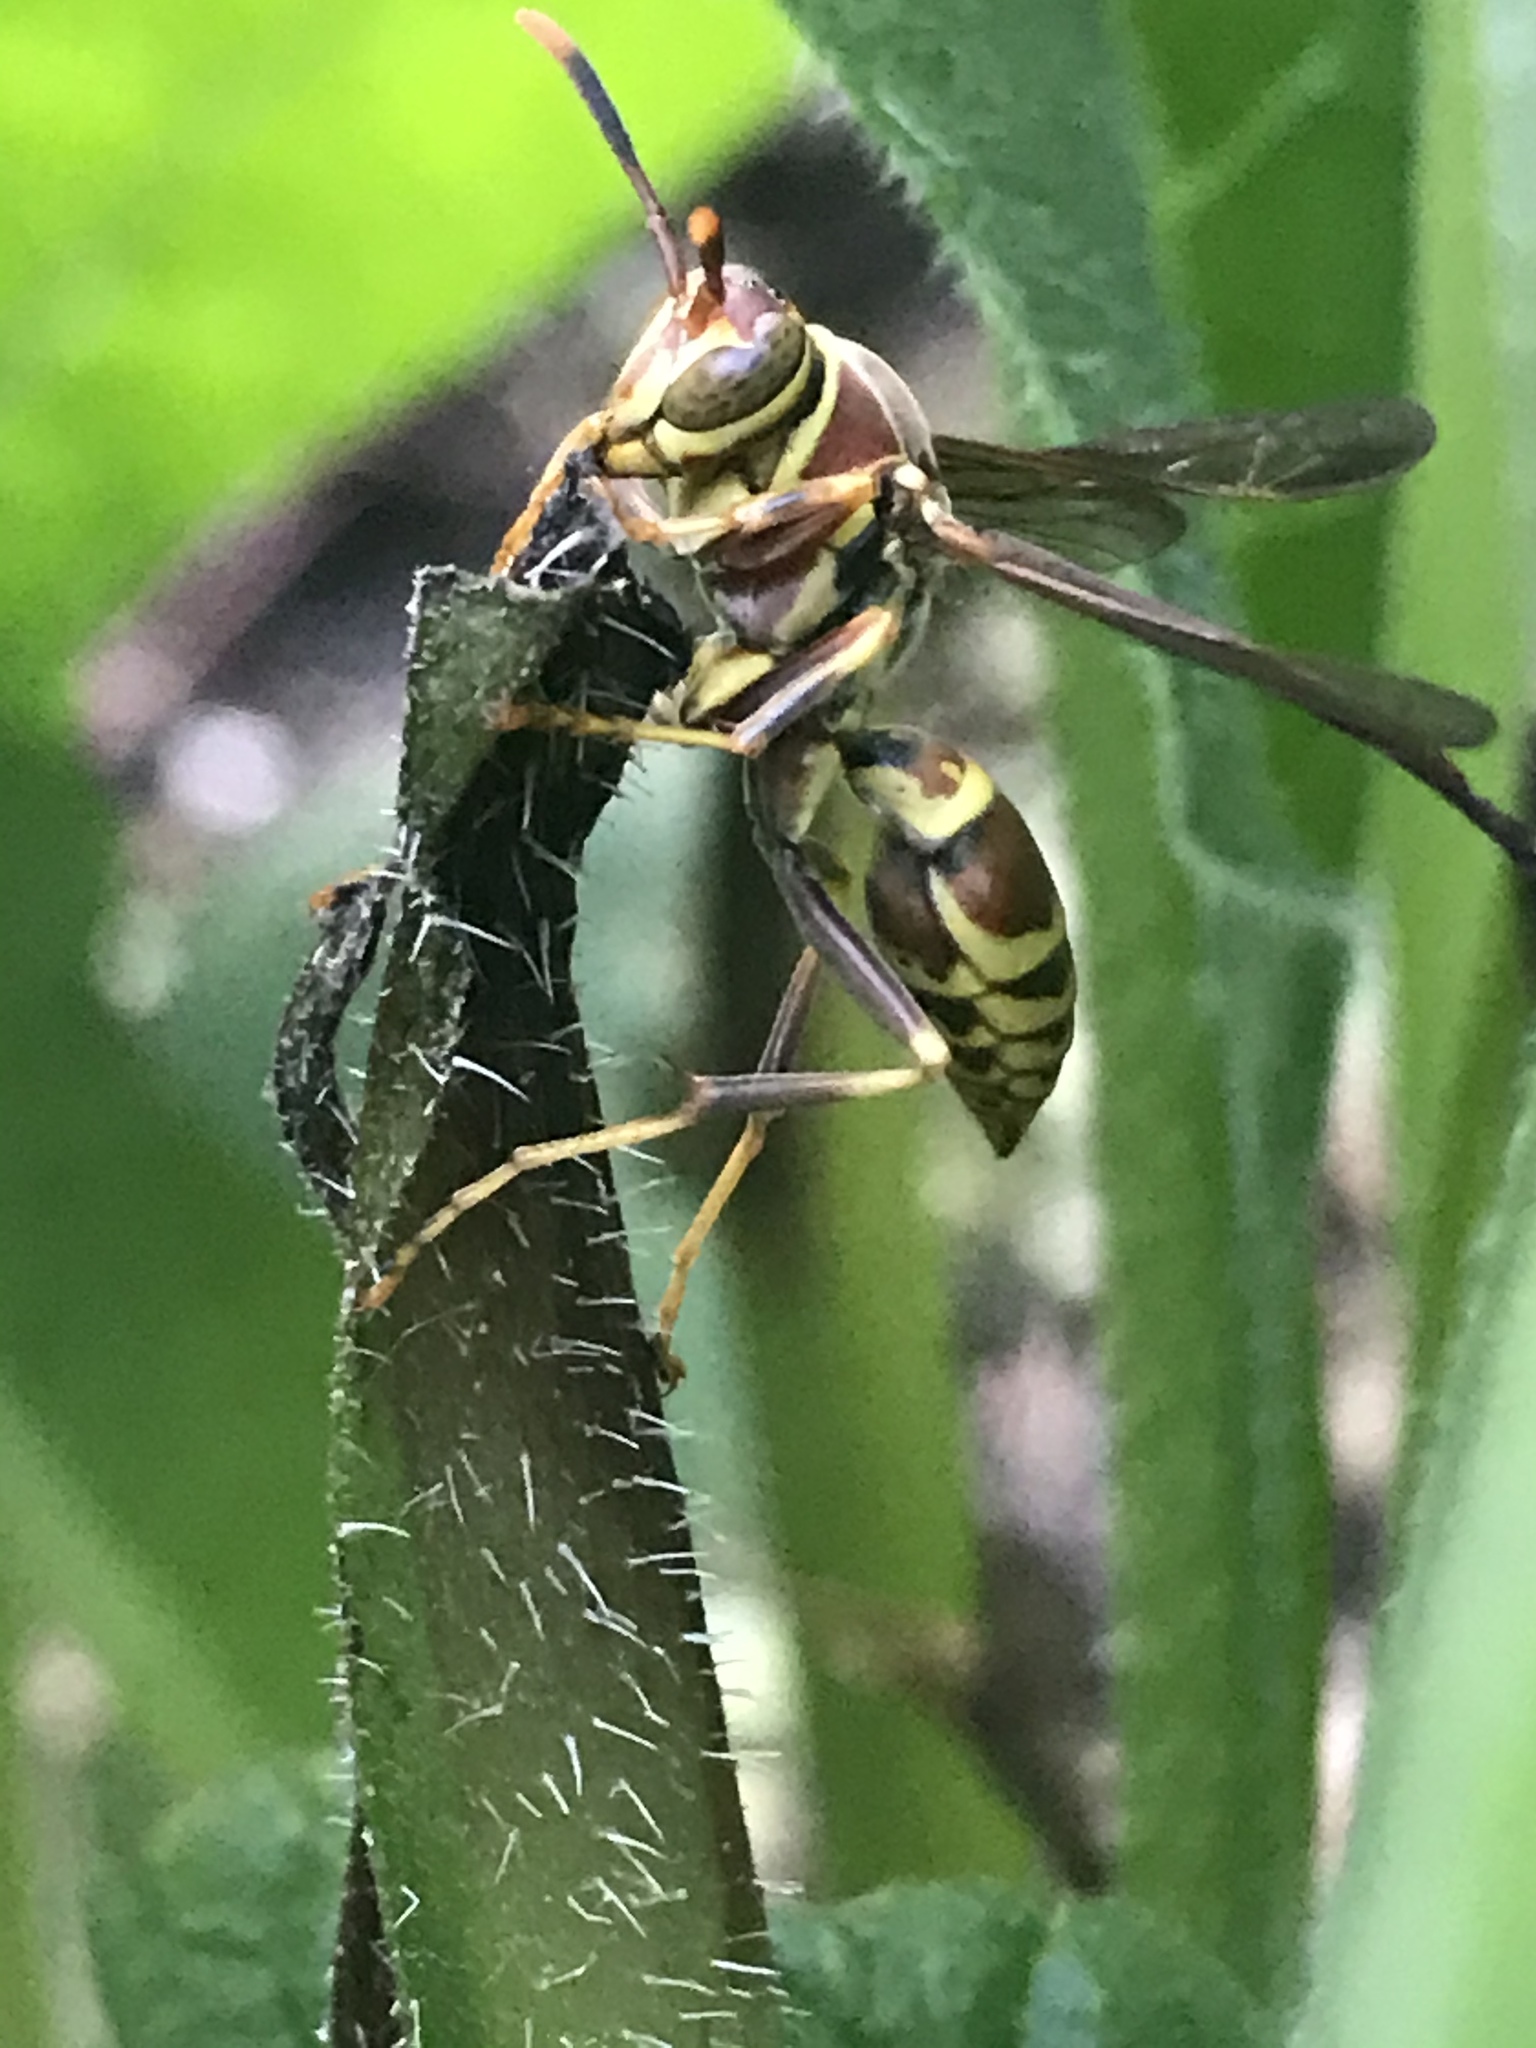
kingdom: Animalia
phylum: Arthropoda
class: Insecta
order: Hymenoptera
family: Eumenidae
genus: Polistes
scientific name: Polistes exclamans
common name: Paper wasp
